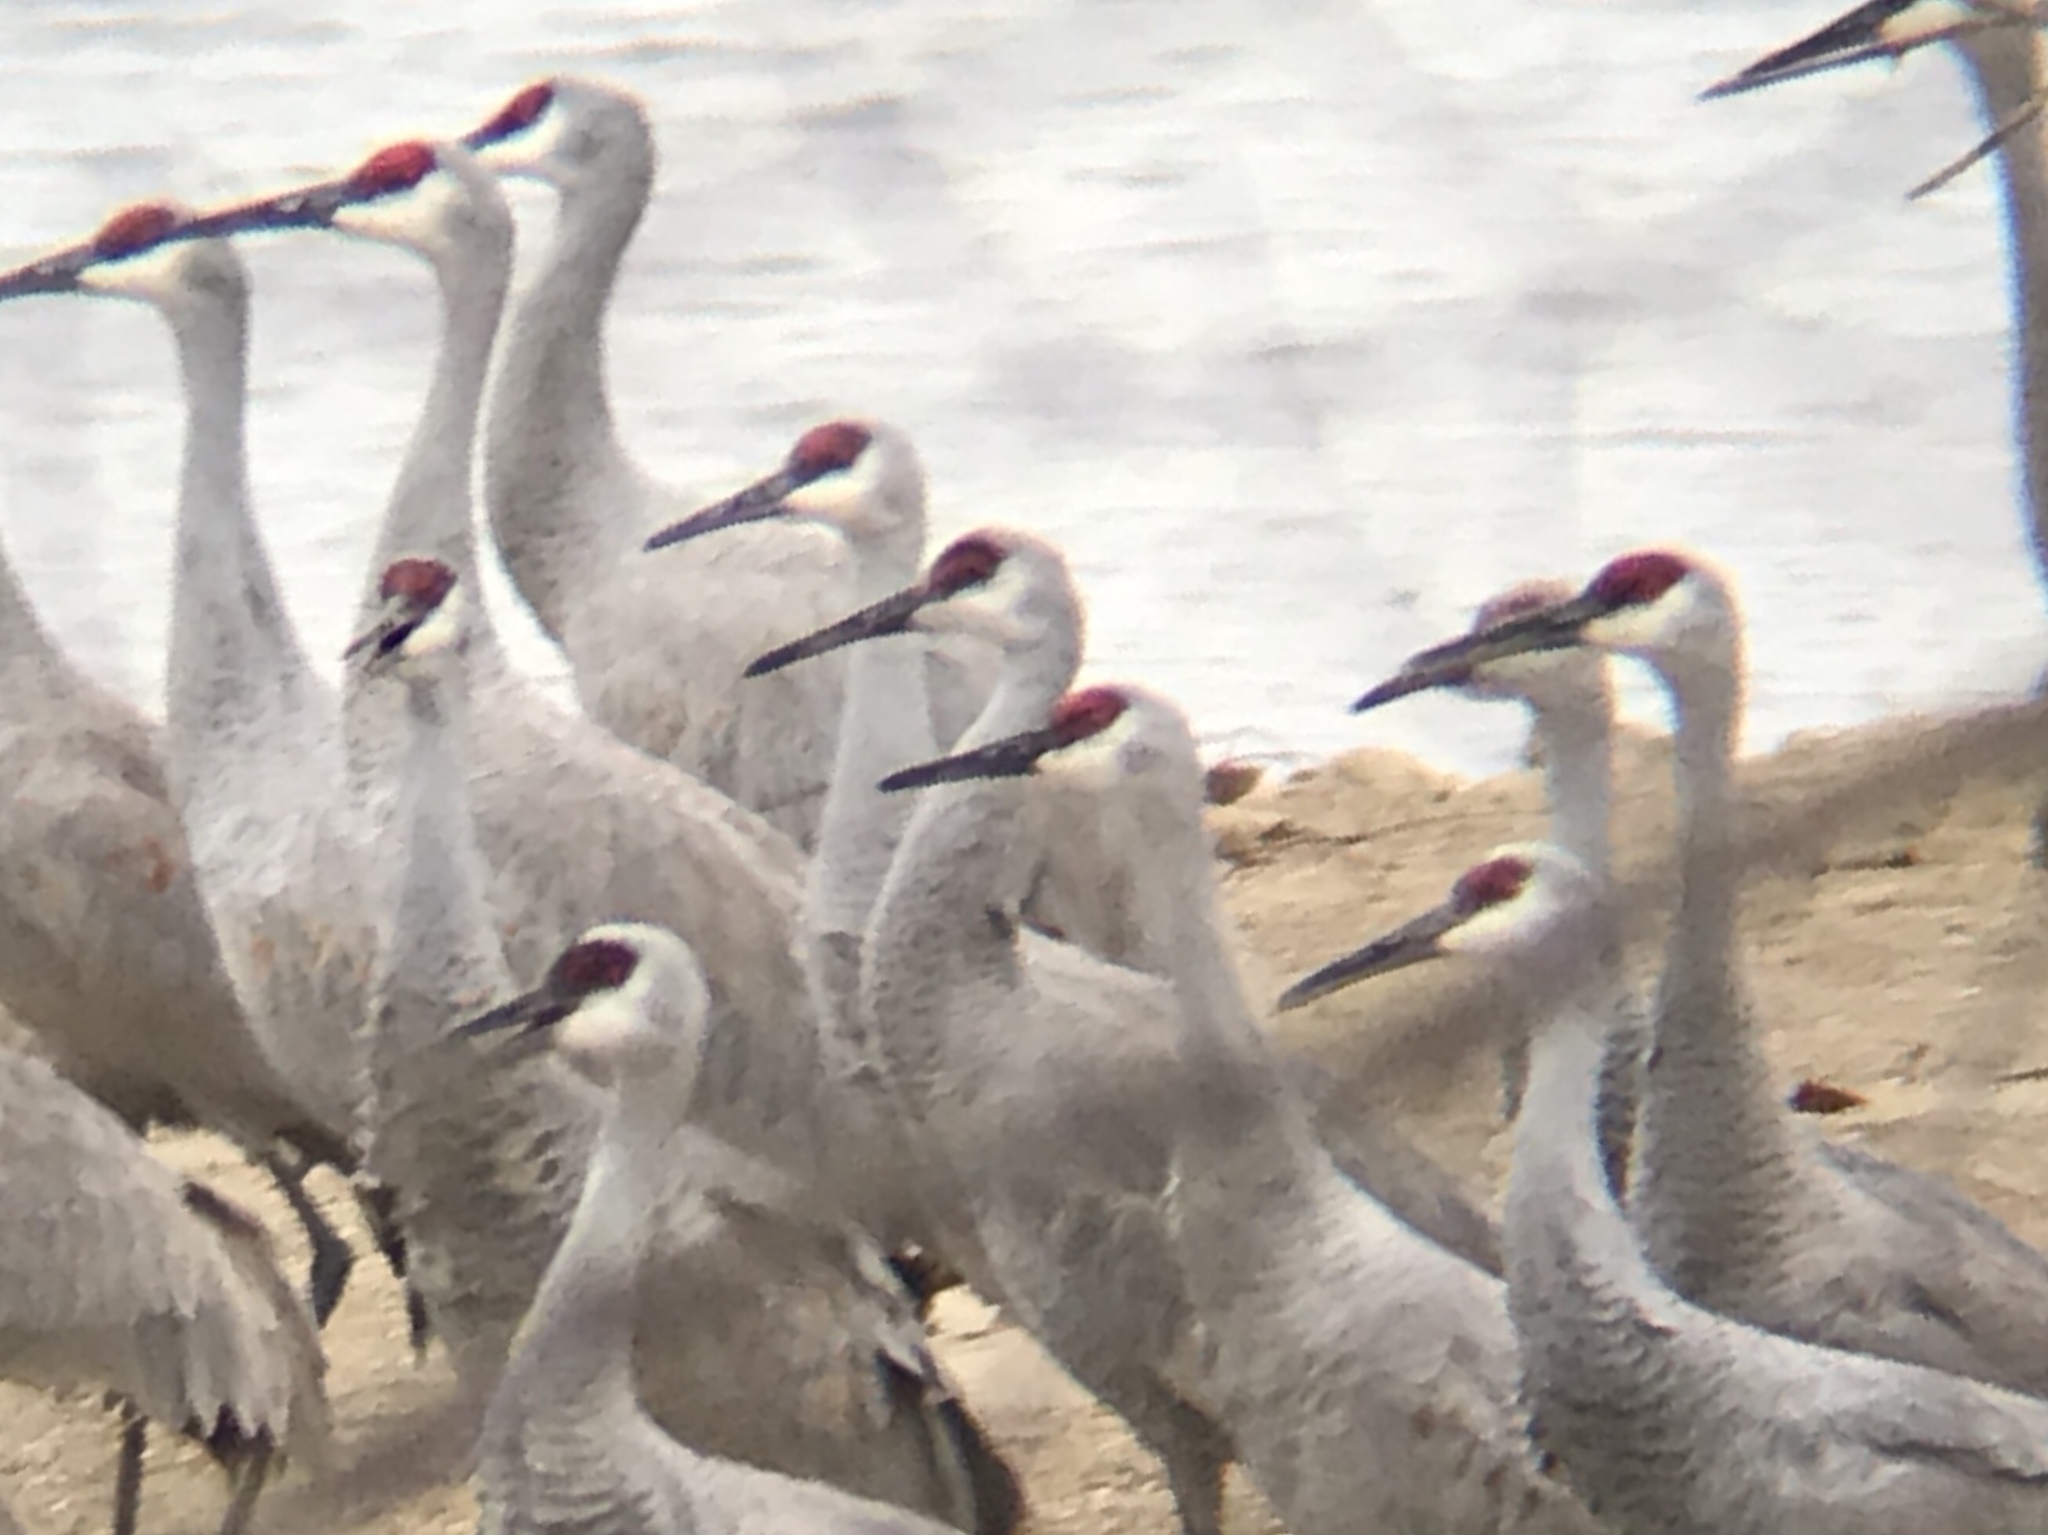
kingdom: Animalia
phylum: Chordata
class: Aves
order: Gruiformes
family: Gruidae
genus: Grus
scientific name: Grus canadensis
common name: Sandhill crane
